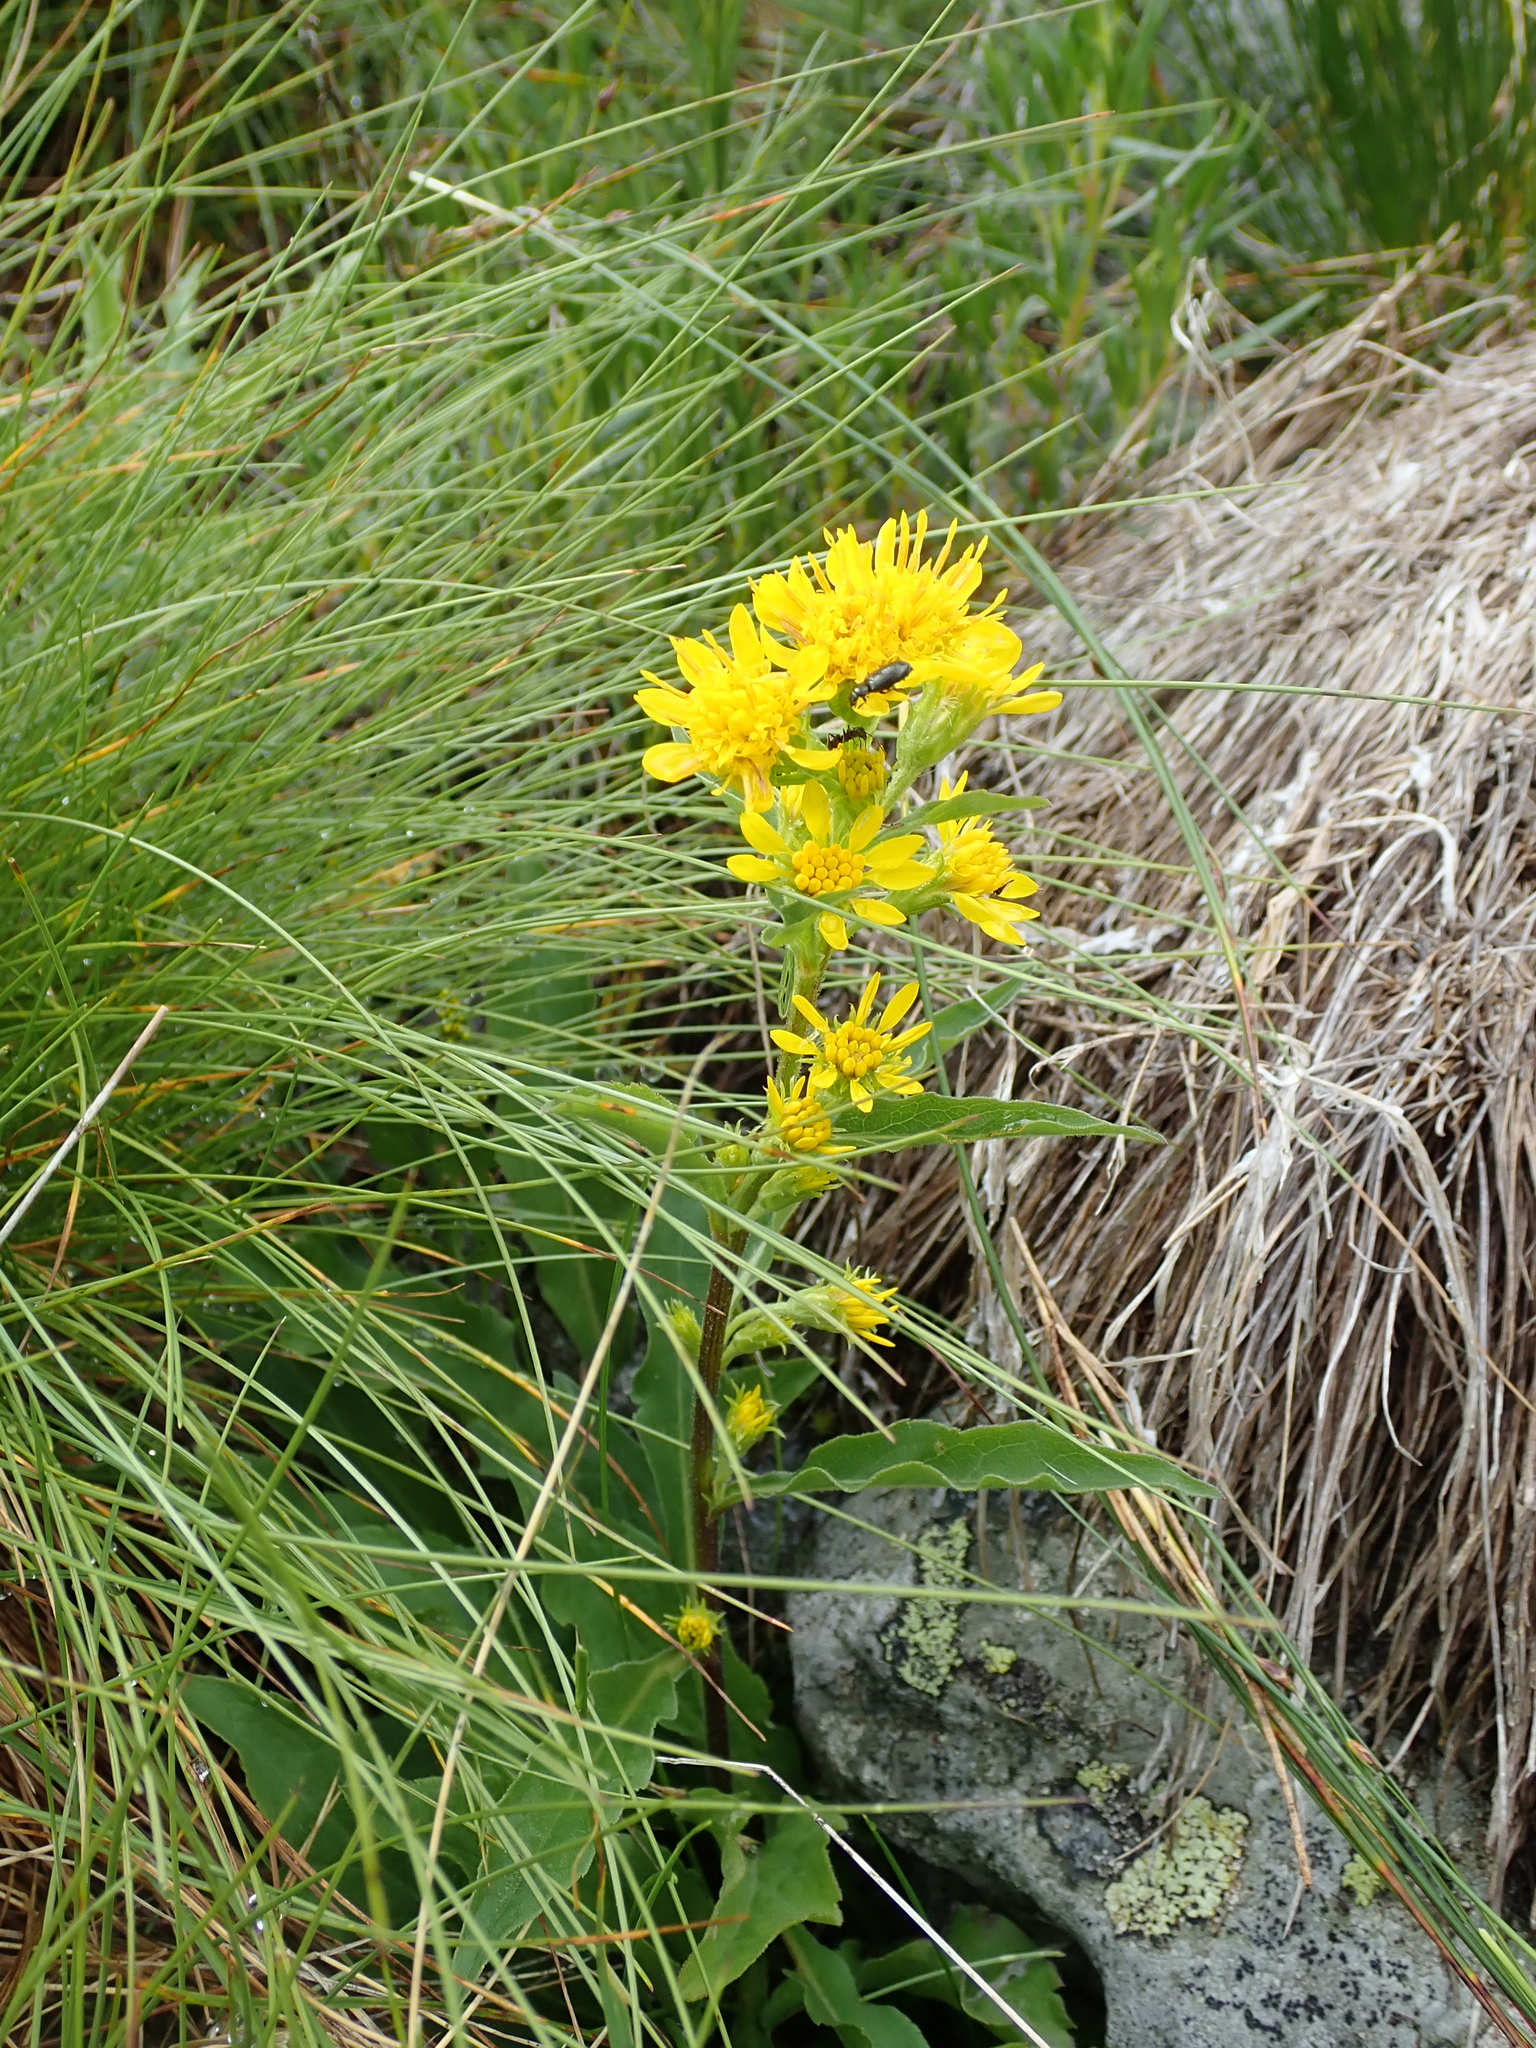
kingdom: Plantae
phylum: Tracheophyta
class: Magnoliopsida
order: Asterales
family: Asteraceae
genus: Solidago
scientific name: Solidago virgaurea
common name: Goldenrod
